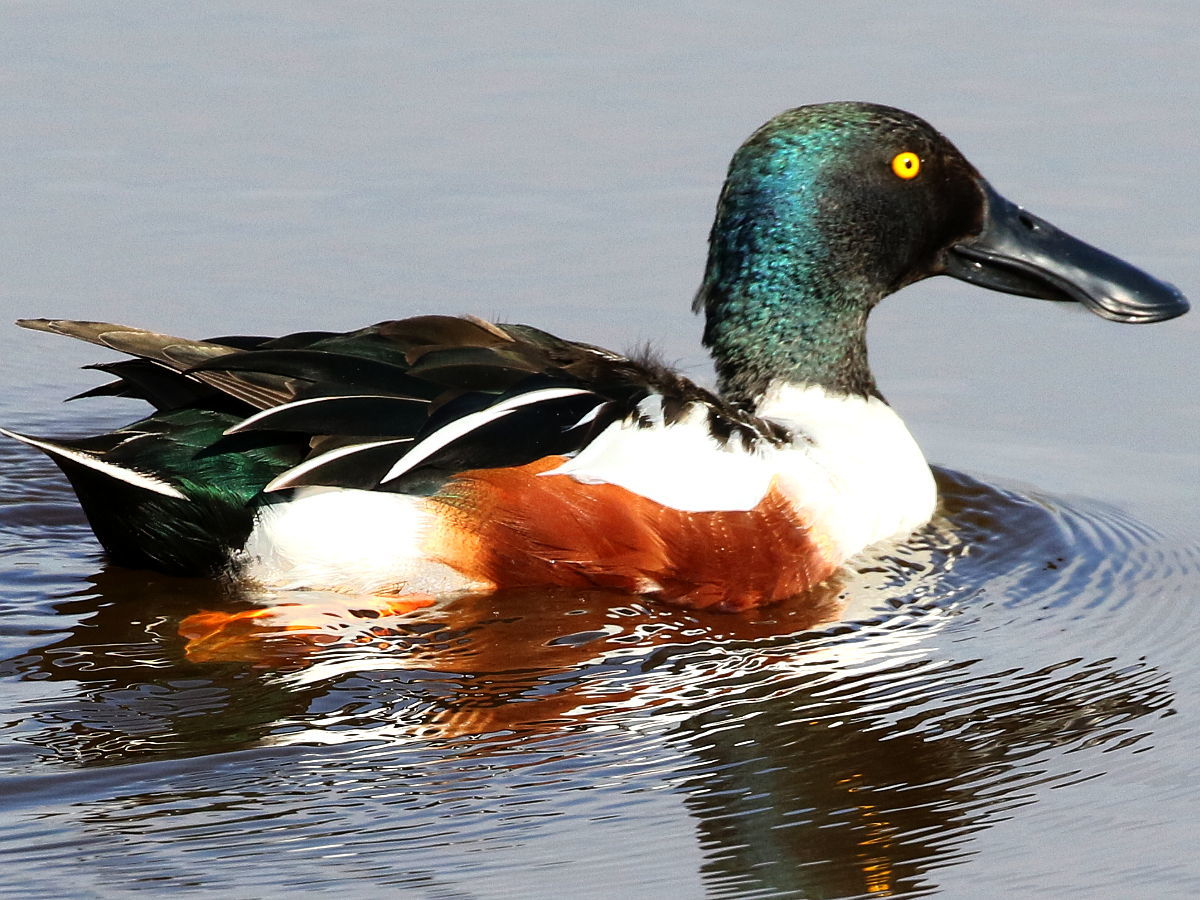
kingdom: Animalia
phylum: Chordata
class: Aves
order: Anseriformes
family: Anatidae
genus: Spatula
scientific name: Spatula clypeata
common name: Northern shoveler
